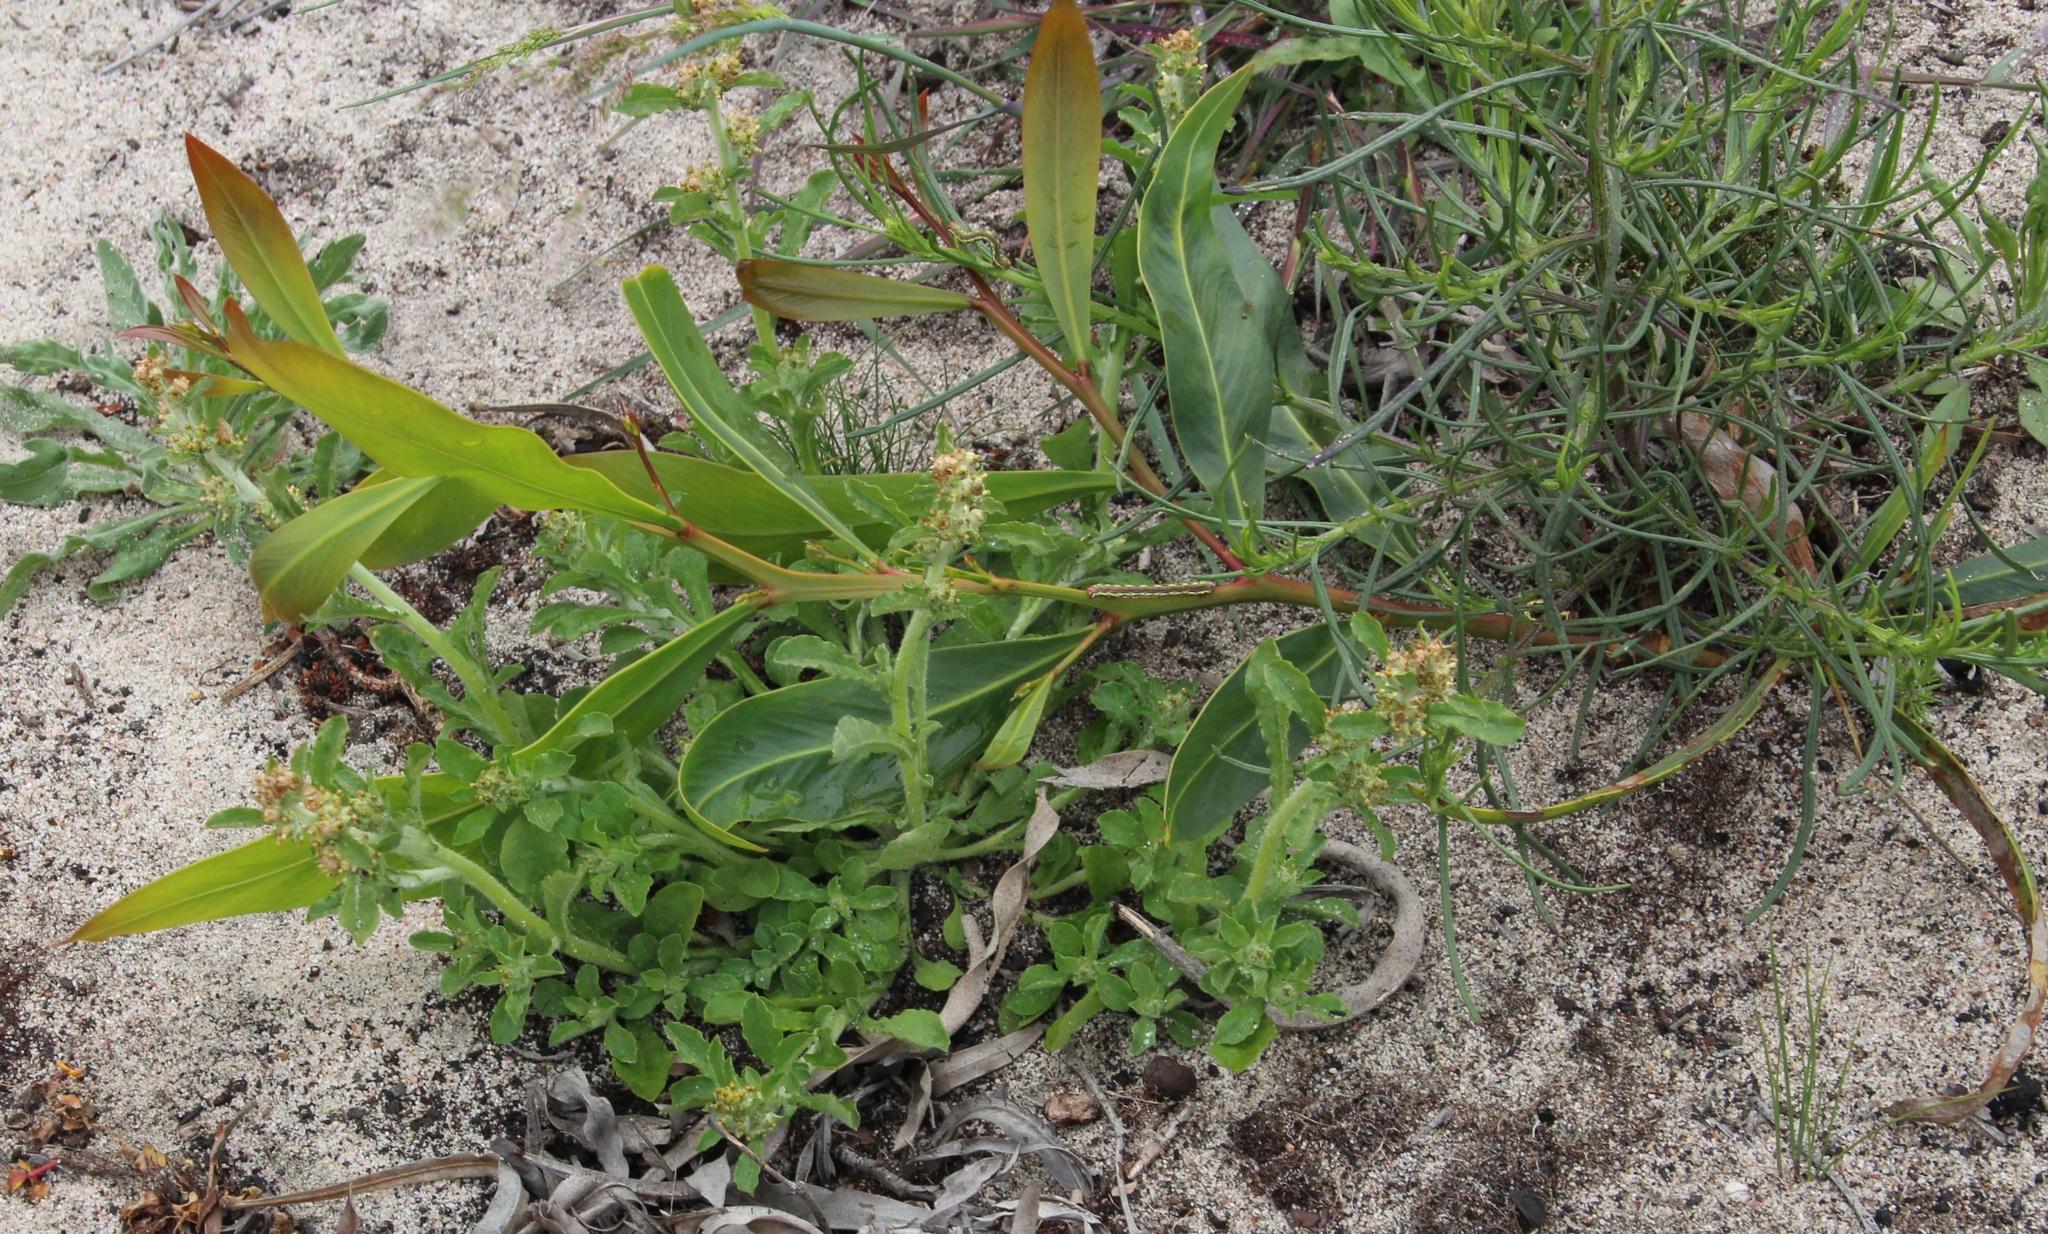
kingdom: Plantae
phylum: Tracheophyta
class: Magnoliopsida
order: Fabales
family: Fabaceae
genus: Acacia
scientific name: Acacia saligna
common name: Orange wattle
